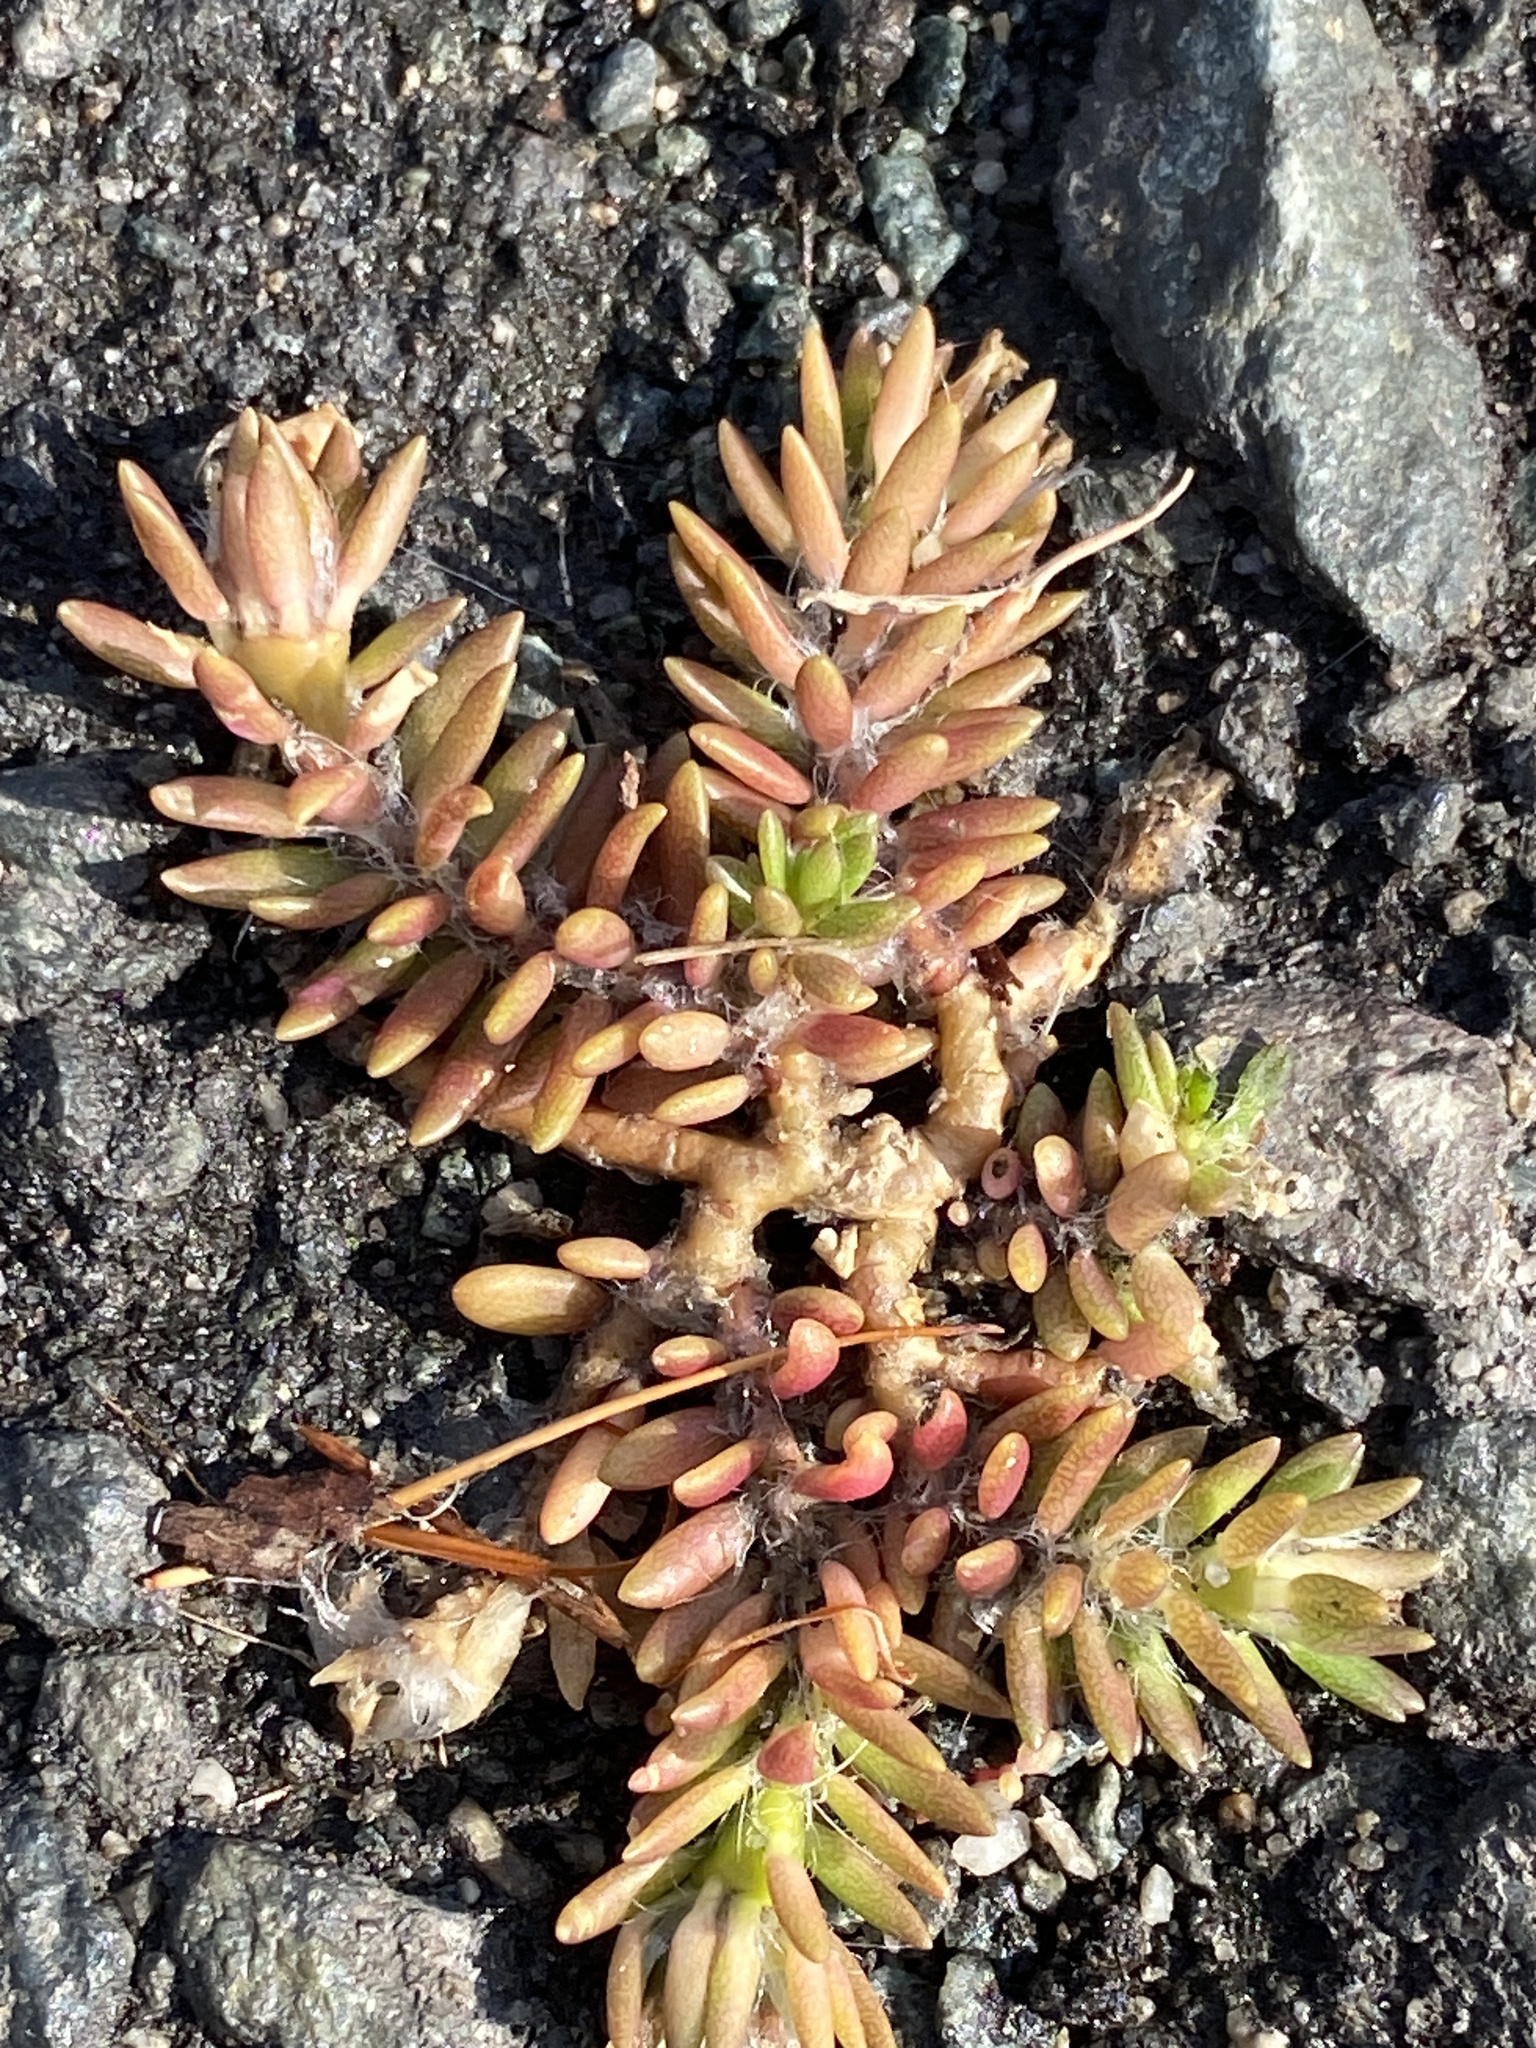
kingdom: Plantae
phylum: Tracheophyta
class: Magnoliopsida
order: Caryophyllales
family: Portulacaceae
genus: Portulaca
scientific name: Portulaca pilosa
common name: Kiss me quick
